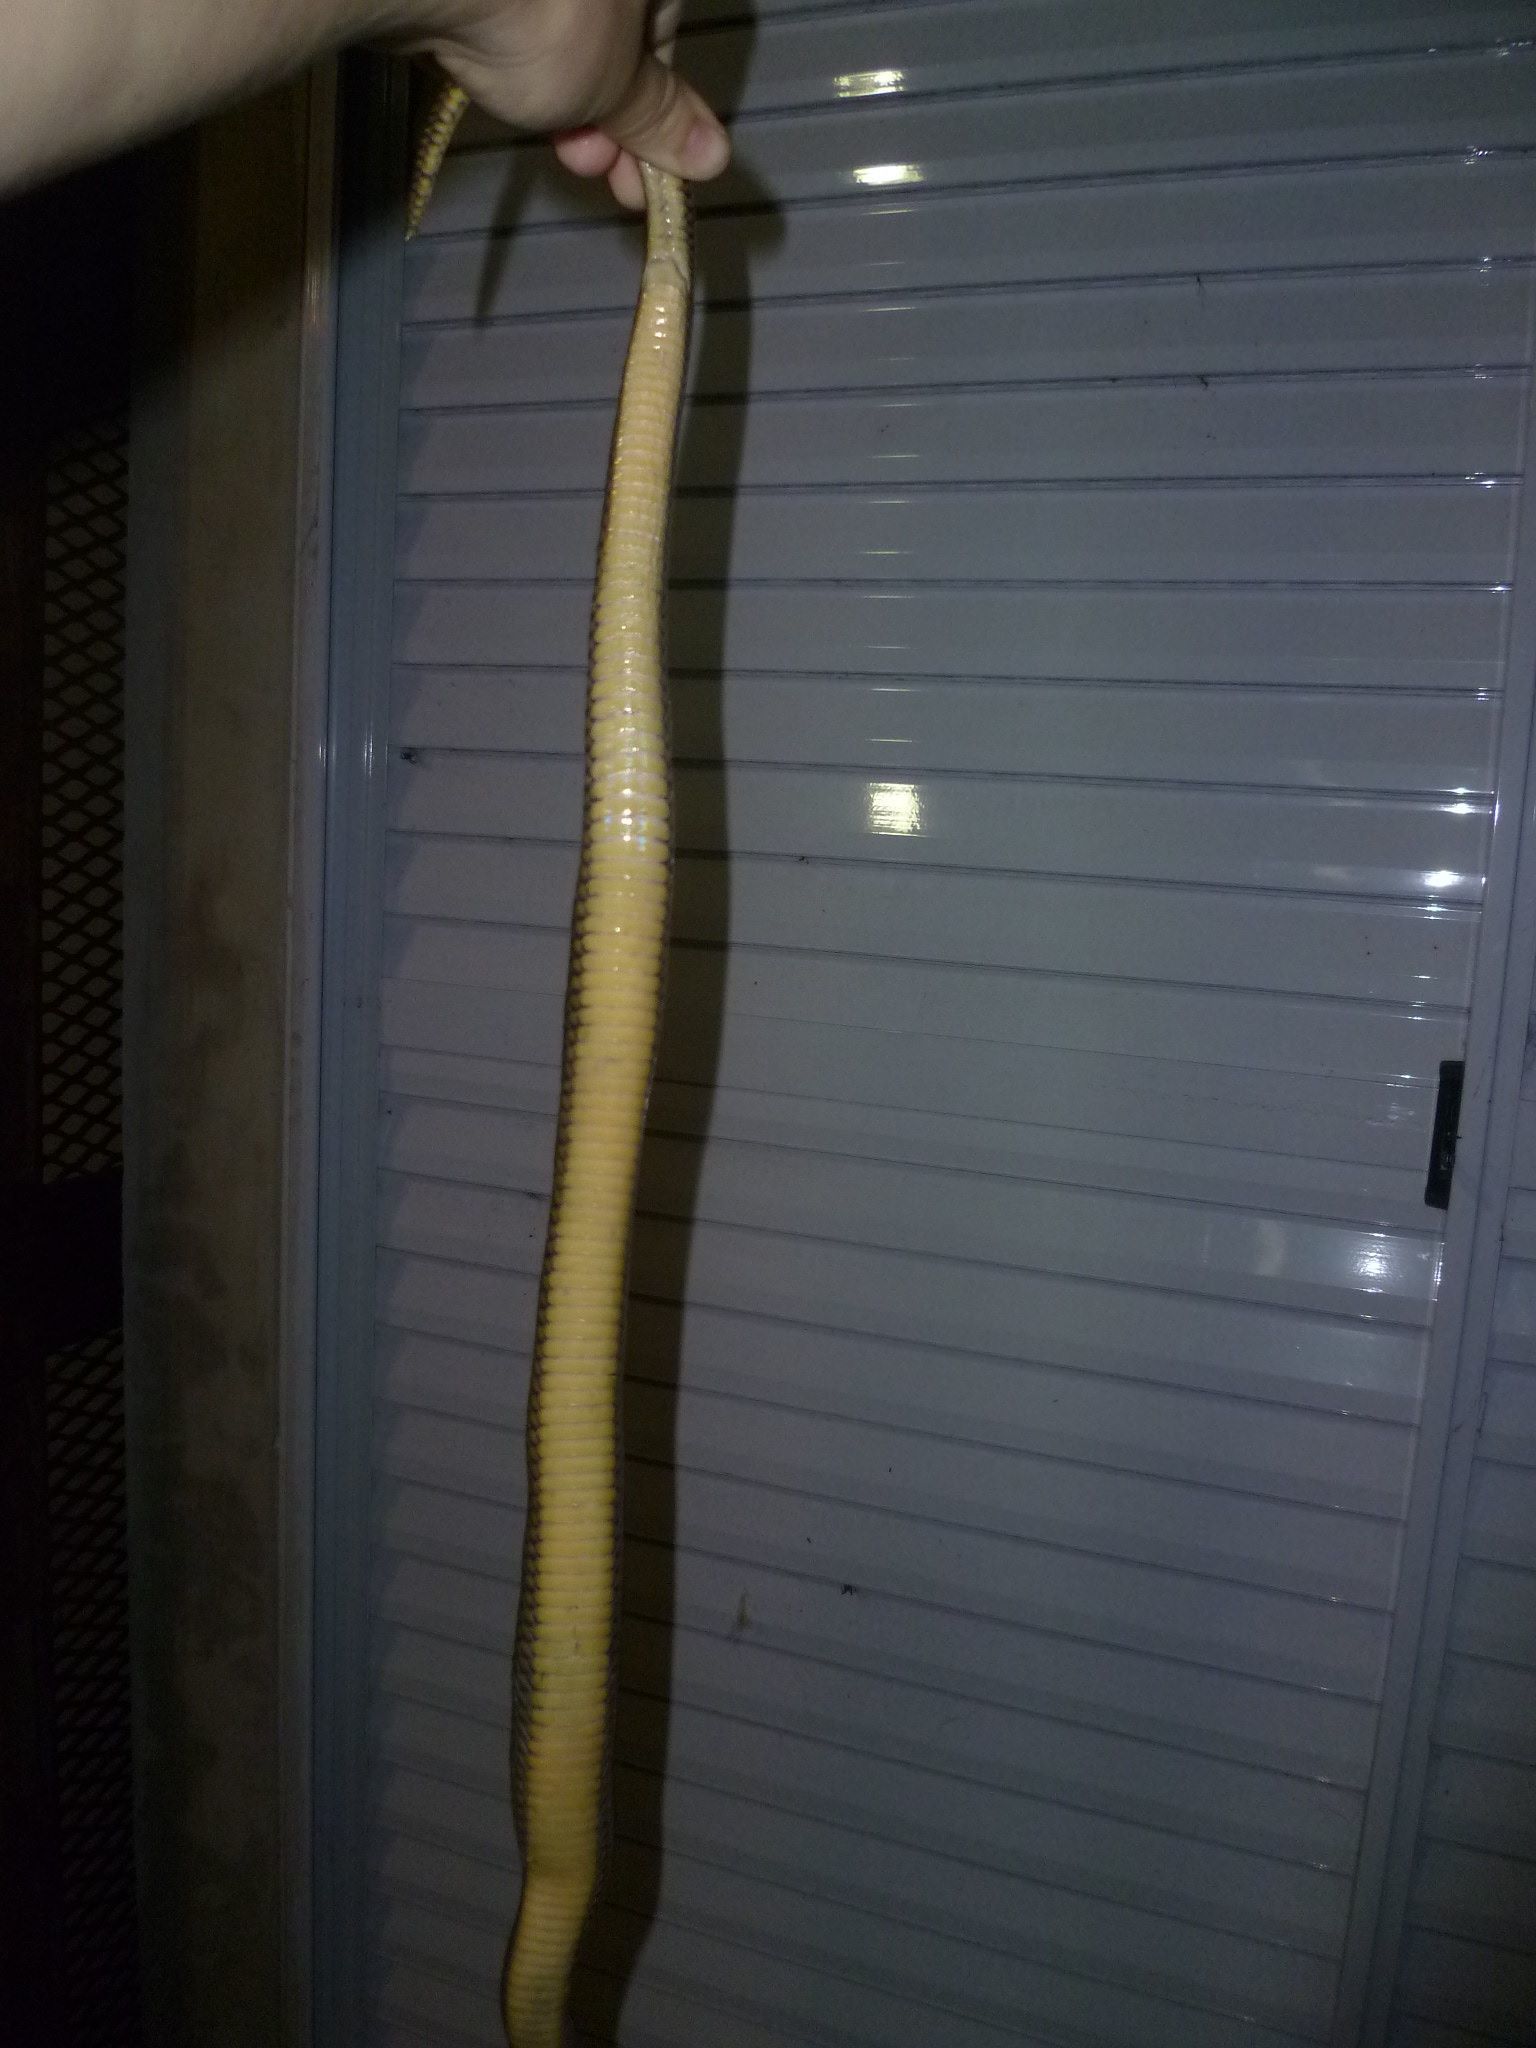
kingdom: Animalia
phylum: Chordata
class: Squamata
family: Colubridae
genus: Paraphimophis
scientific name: Paraphimophis rusticus
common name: Culebra
